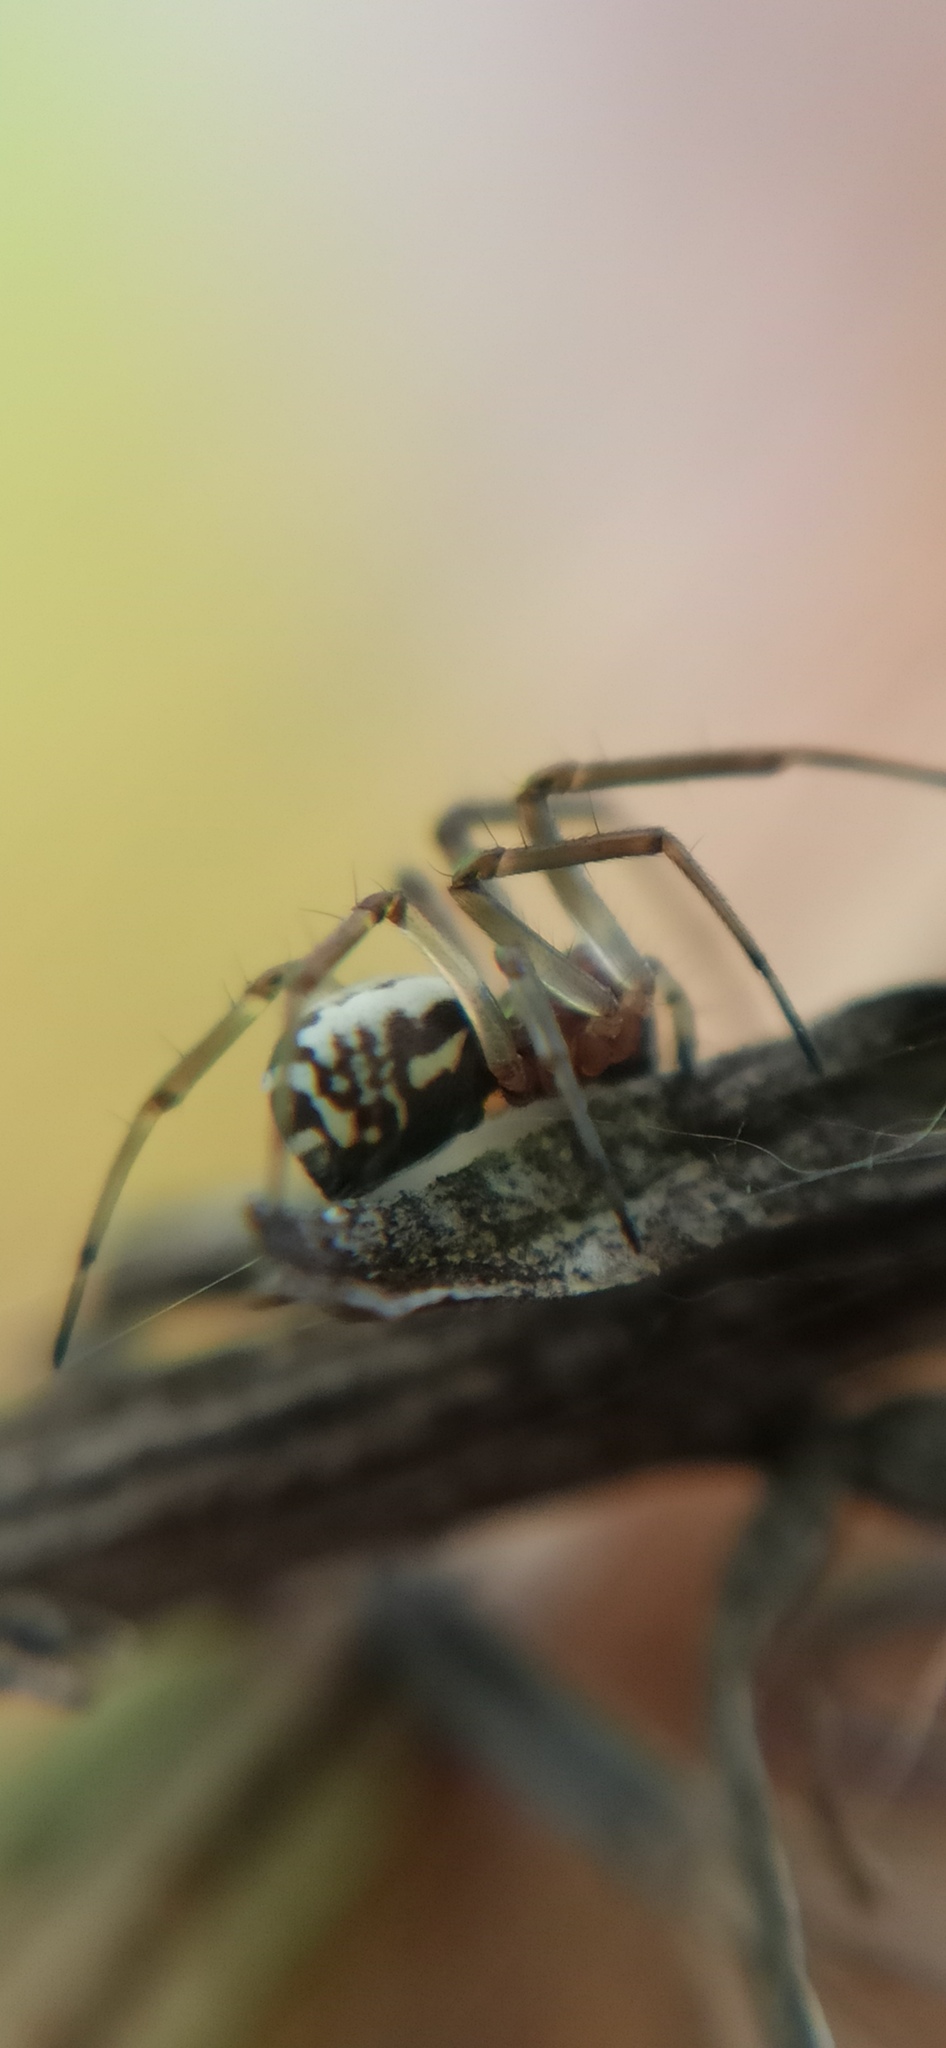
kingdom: Animalia
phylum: Arthropoda
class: Arachnida
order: Araneae
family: Linyphiidae
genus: Frontinellina
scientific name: Frontinellina frutetorum
